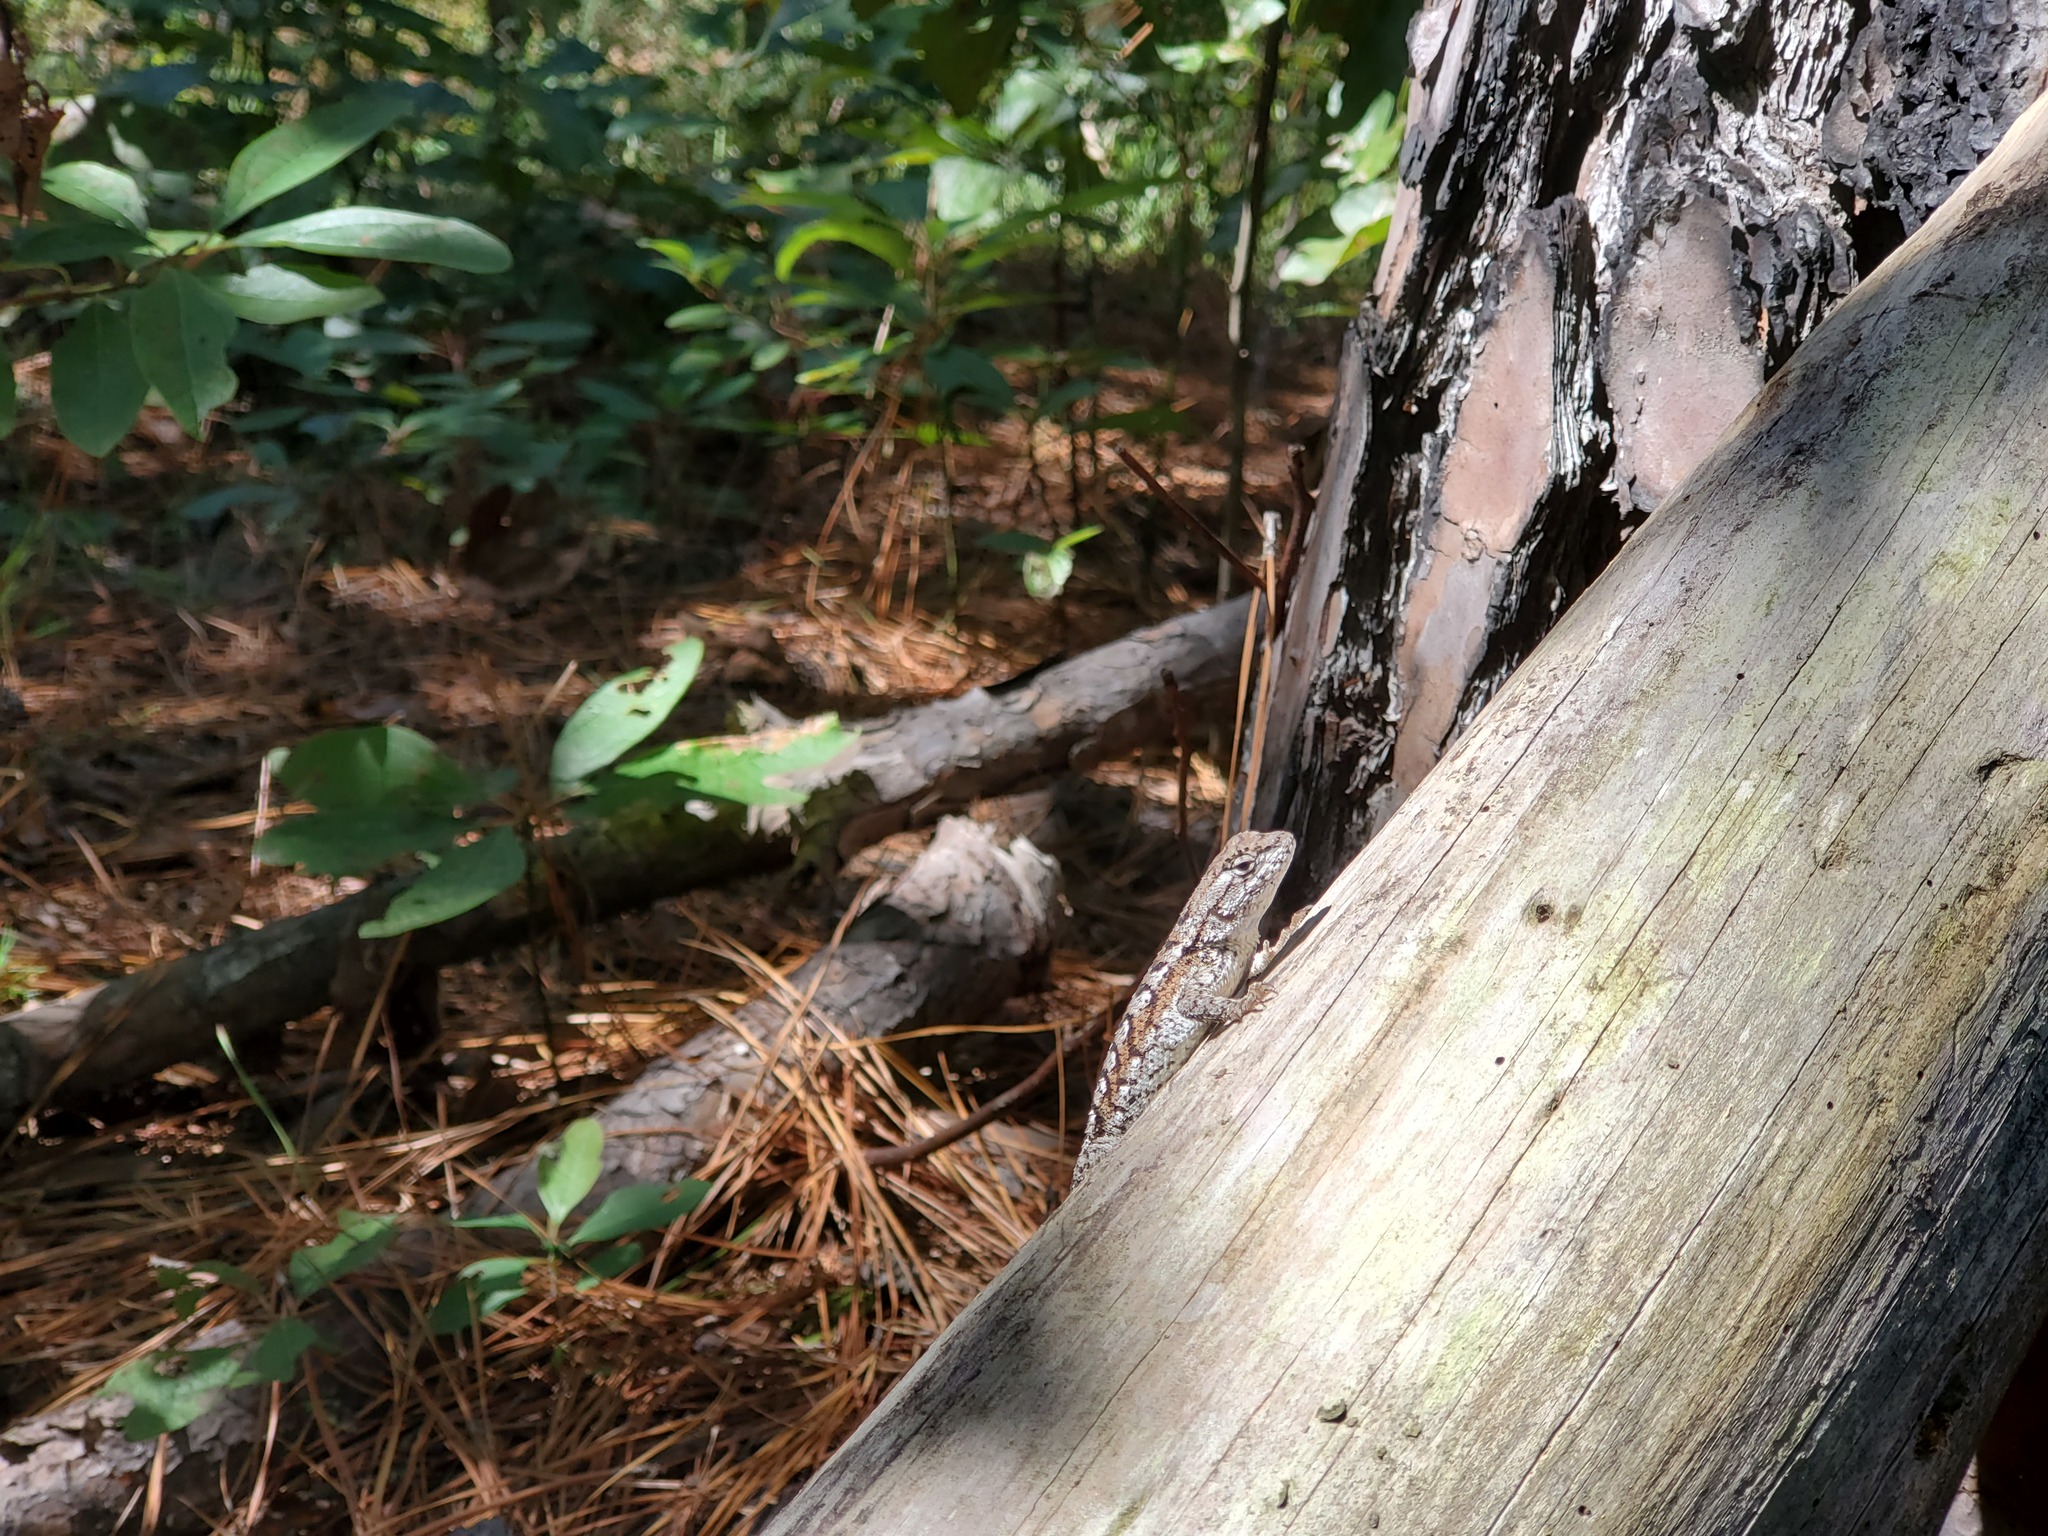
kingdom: Animalia
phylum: Chordata
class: Squamata
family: Phrynosomatidae
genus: Sceloporus
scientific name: Sceloporus consobrinus
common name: Southern prairie lizard
